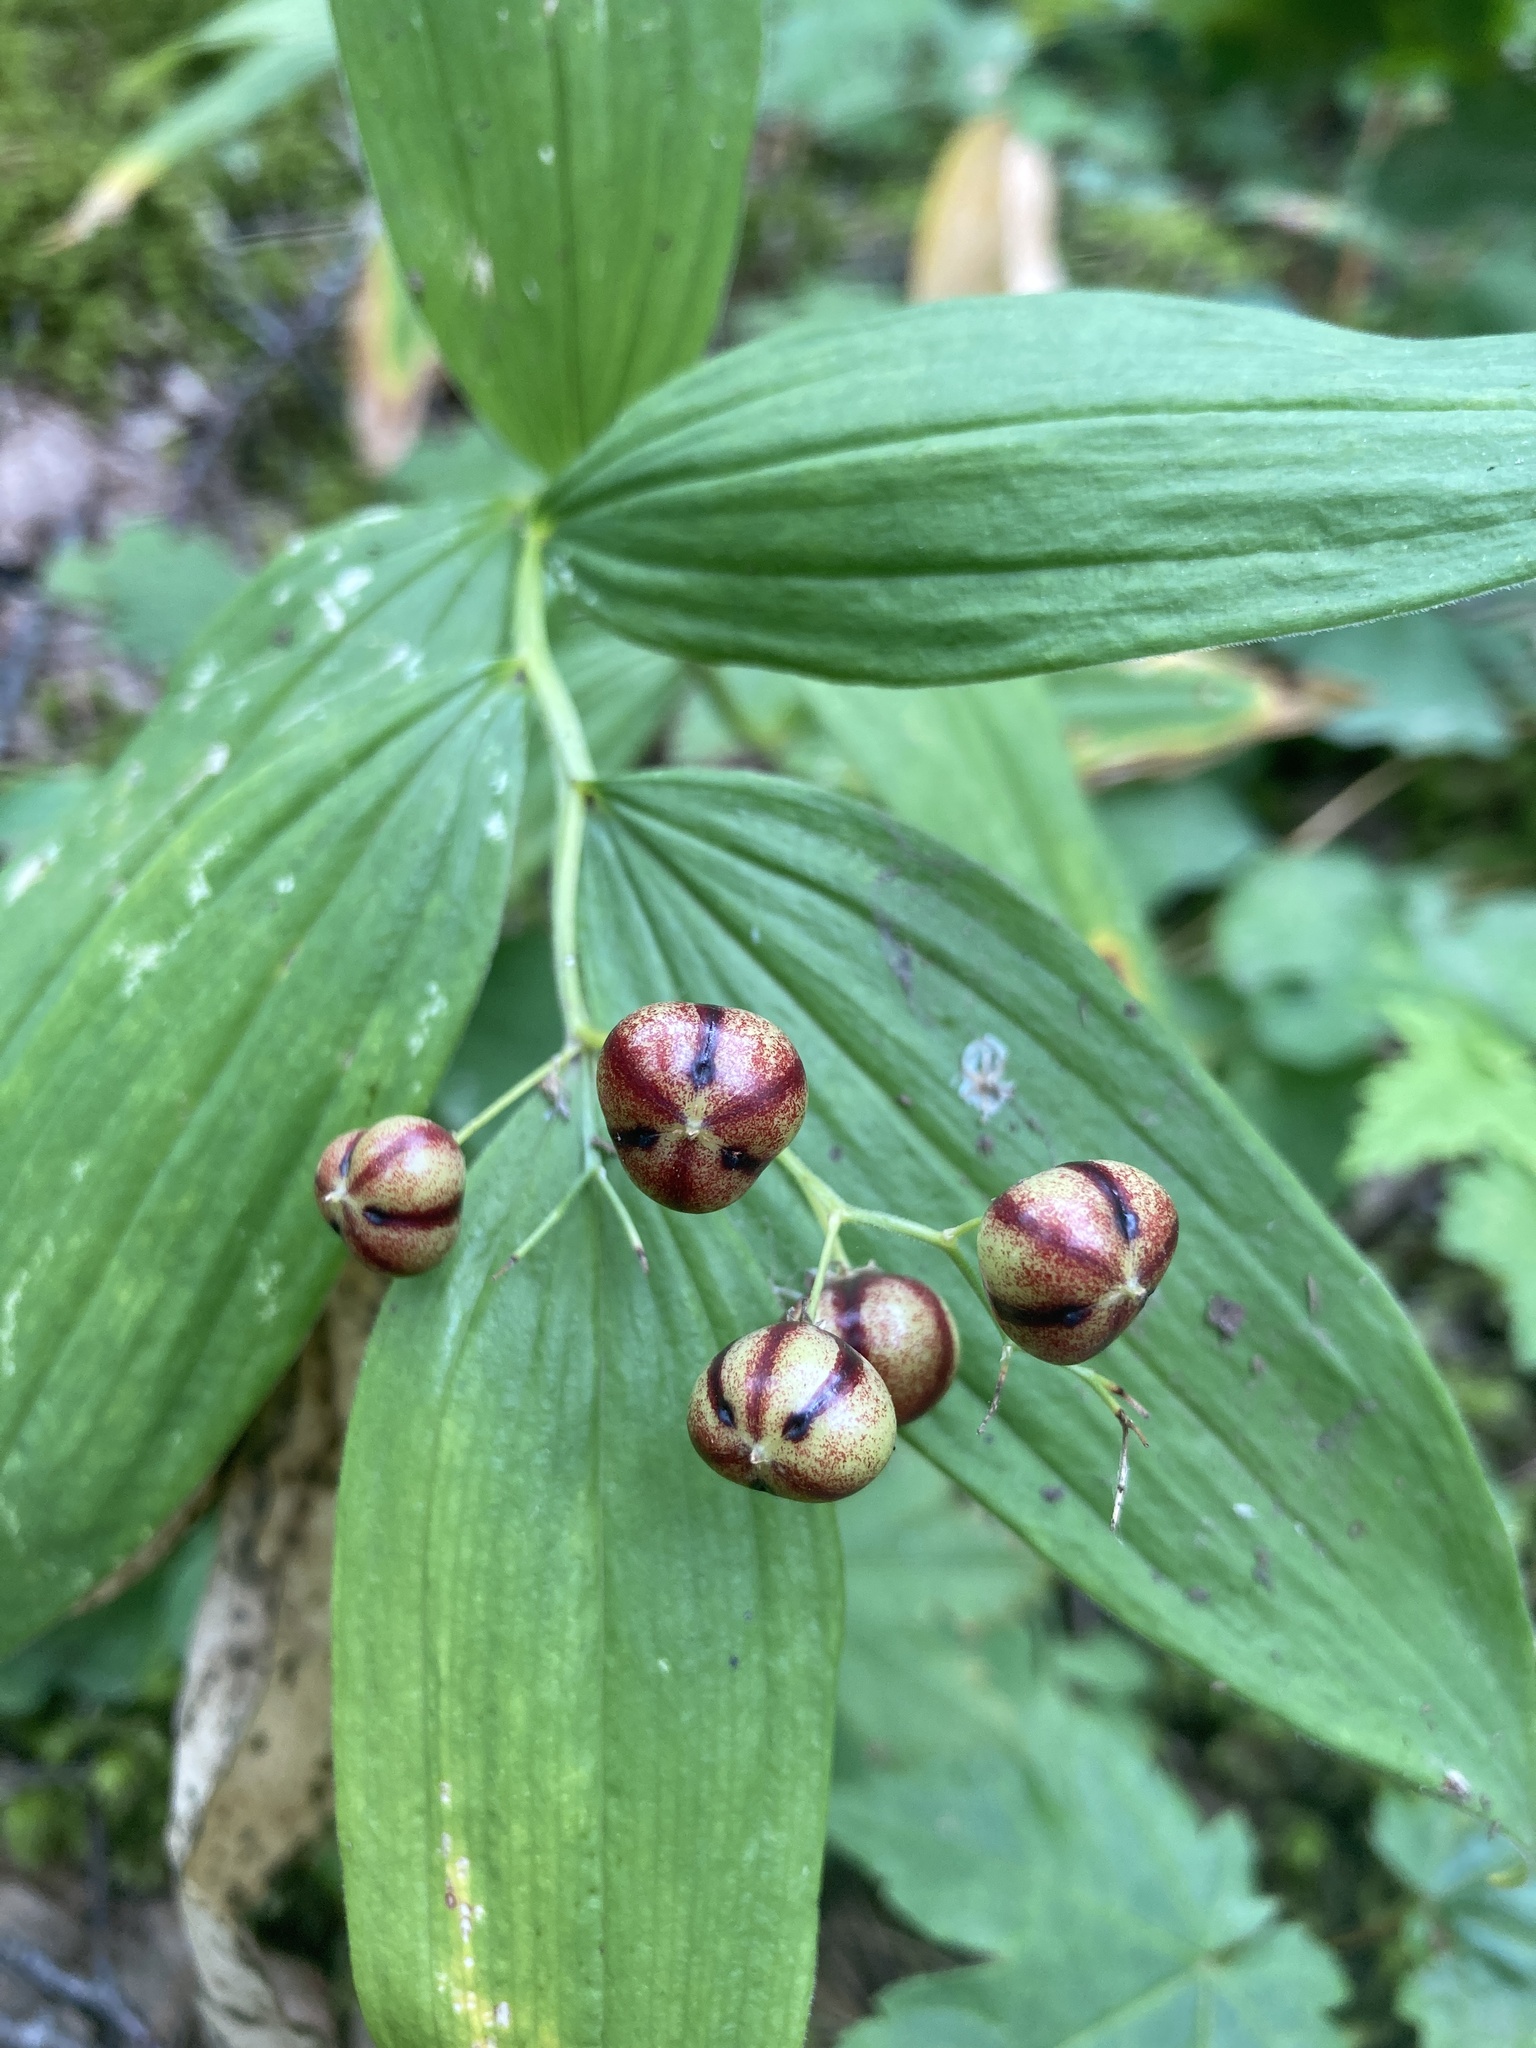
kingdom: Plantae
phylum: Tracheophyta
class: Liliopsida
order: Asparagales
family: Asparagaceae
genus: Maianthemum
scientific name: Maianthemum stellatum
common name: Little false solomon's seal
